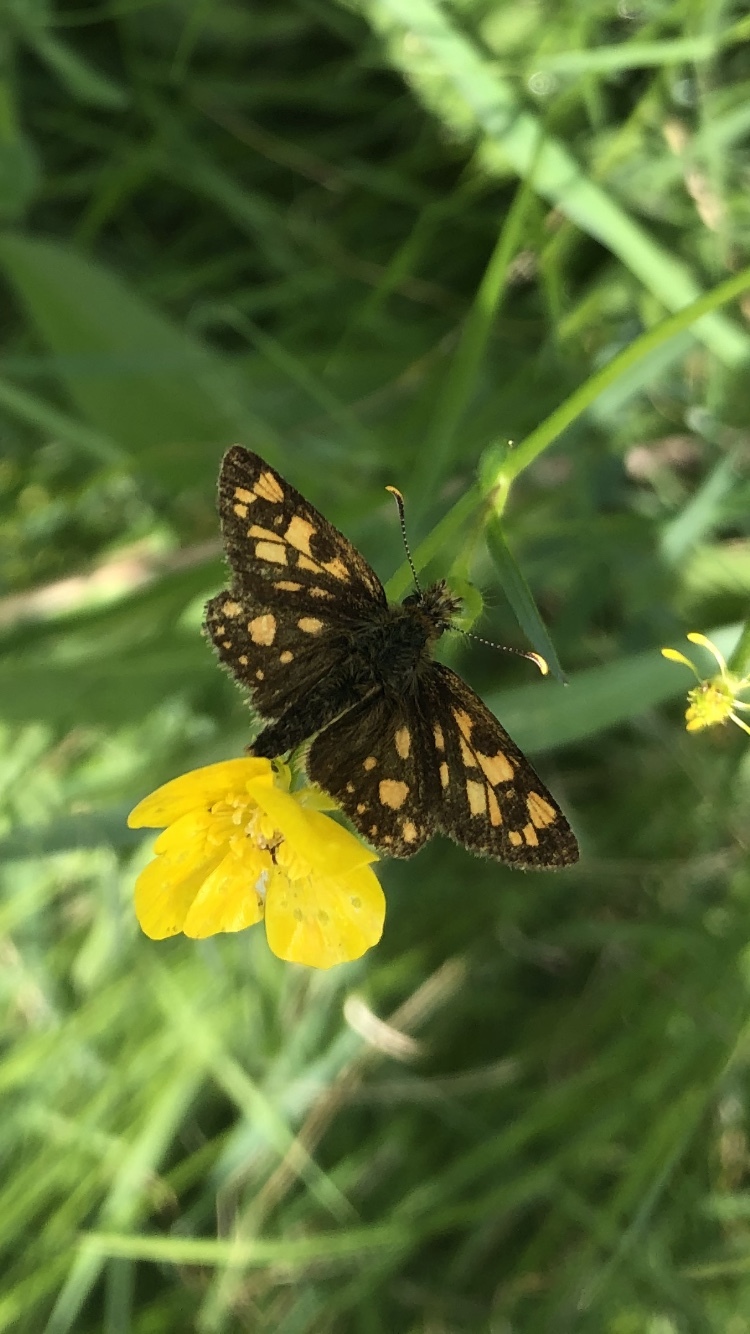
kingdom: Animalia
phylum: Arthropoda
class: Insecta
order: Lepidoptera
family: Hesperiidae
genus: Carterocephalus
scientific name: Carterocephalus mandan
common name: Arctic skipperling
